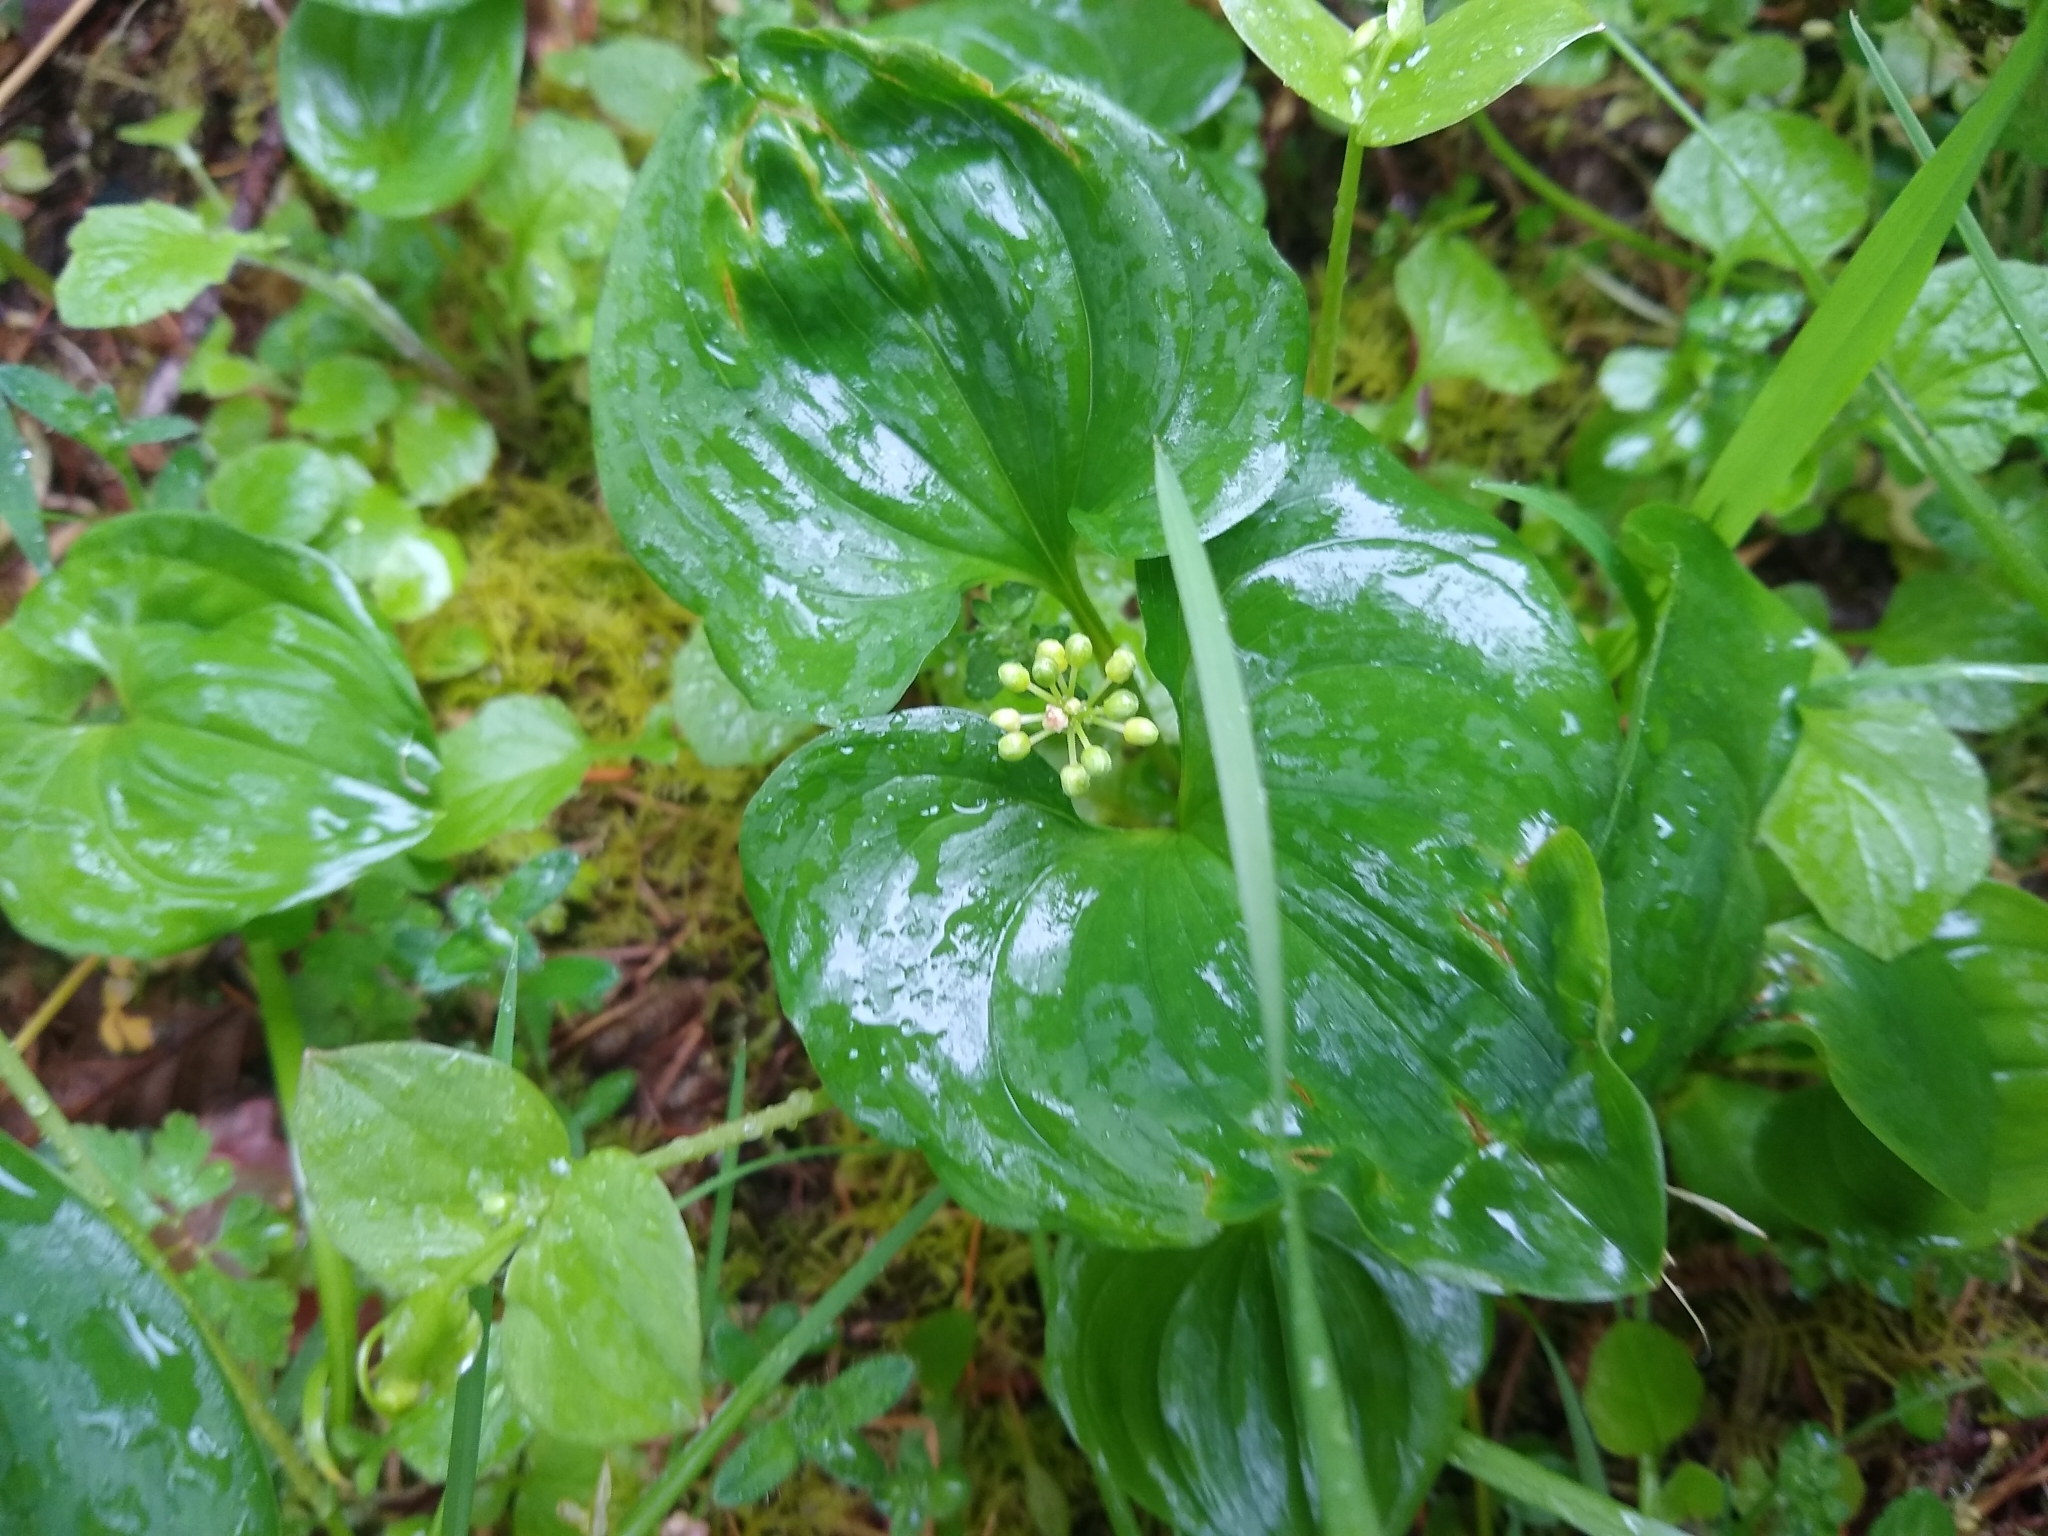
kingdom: Plantae
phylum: Tracheophyta
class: Liliopsida
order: Asparagales
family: Asparagaceae
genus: Maianthemum
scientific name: Maianthemum dilatatum
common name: False lily-of-the-valley
